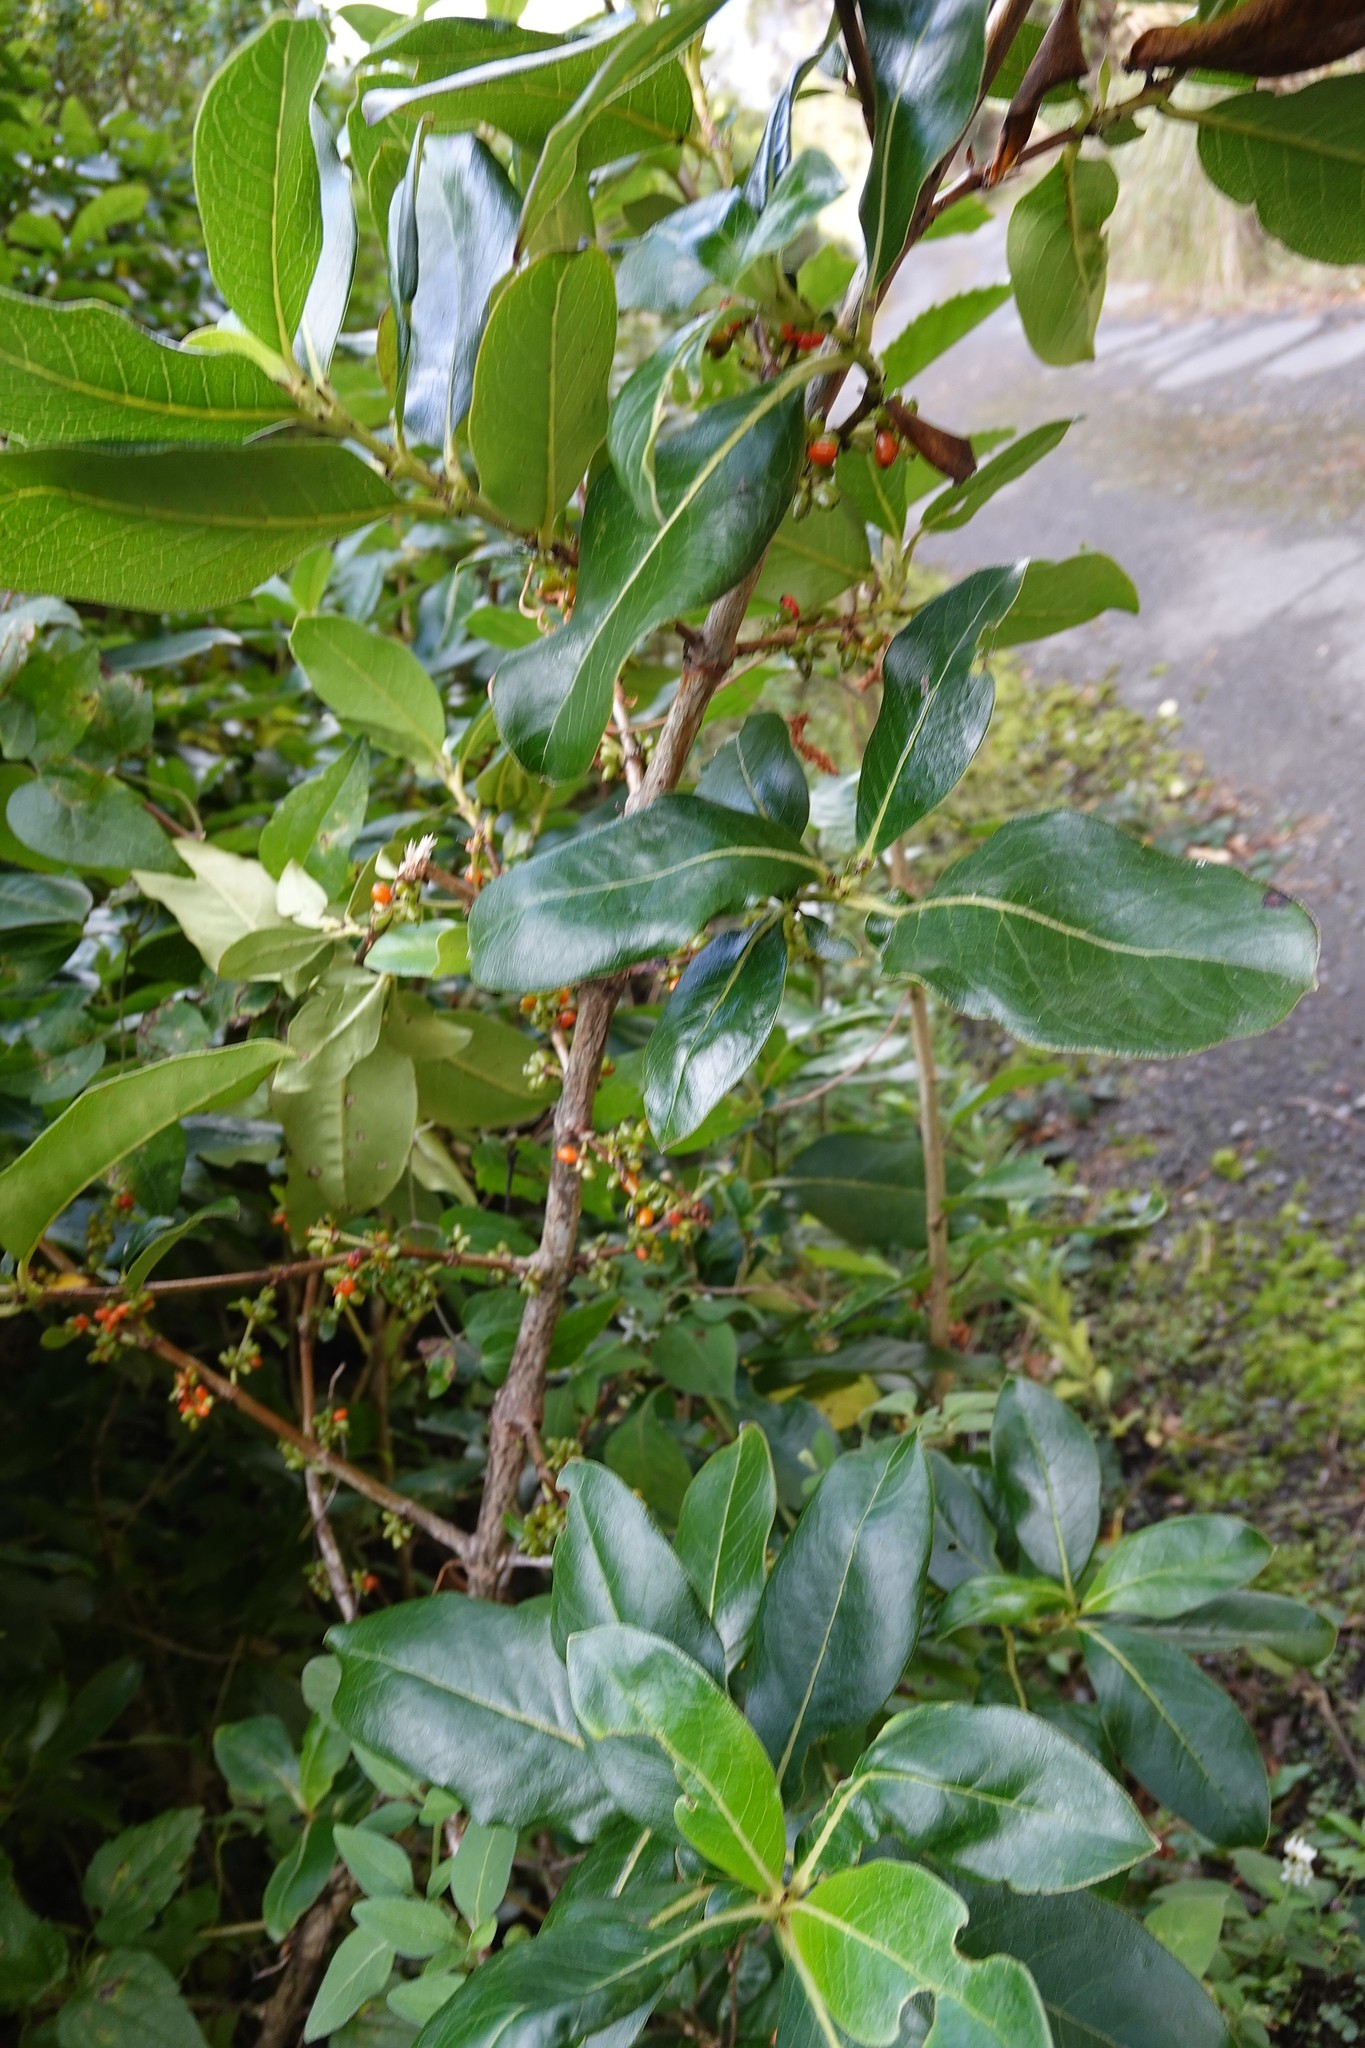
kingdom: Plantae
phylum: Tracheophyta
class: Magnoliopsida
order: Gentianales
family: Rubiaceae
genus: Coprosma
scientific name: Coprosma robusta
